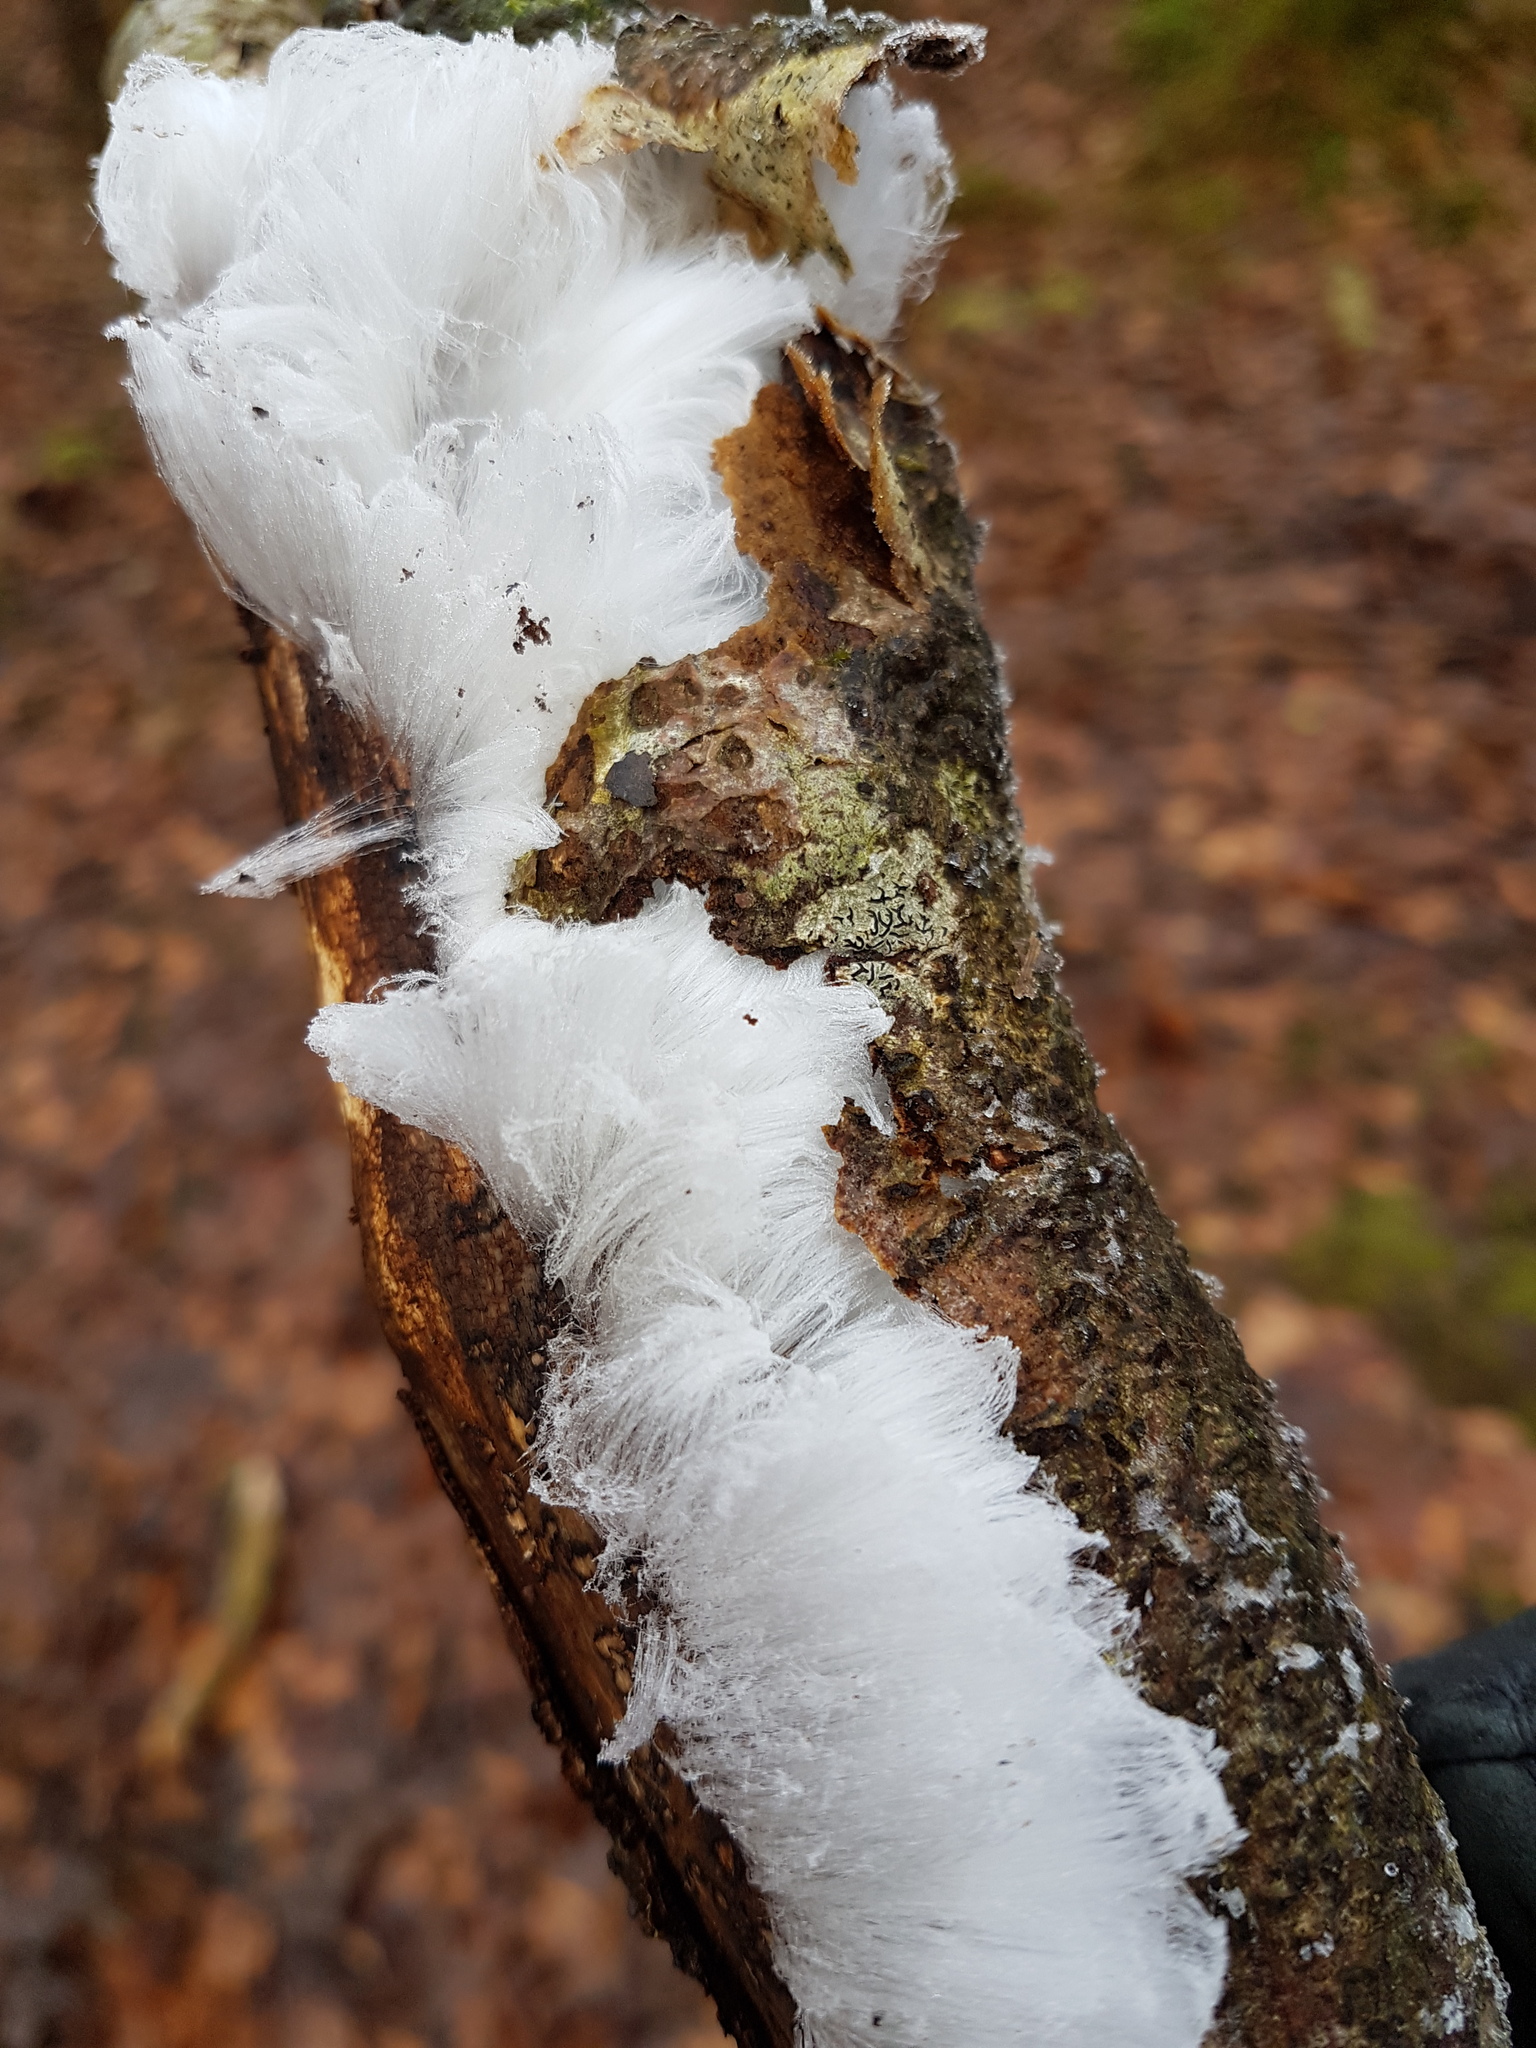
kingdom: Fungi
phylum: Basidiomycota
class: Agaricomycetes
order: Auriculariales
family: Auriculariaceae
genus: Exidiopsis
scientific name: Exidiopsis effusa
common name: Hair ice crust
